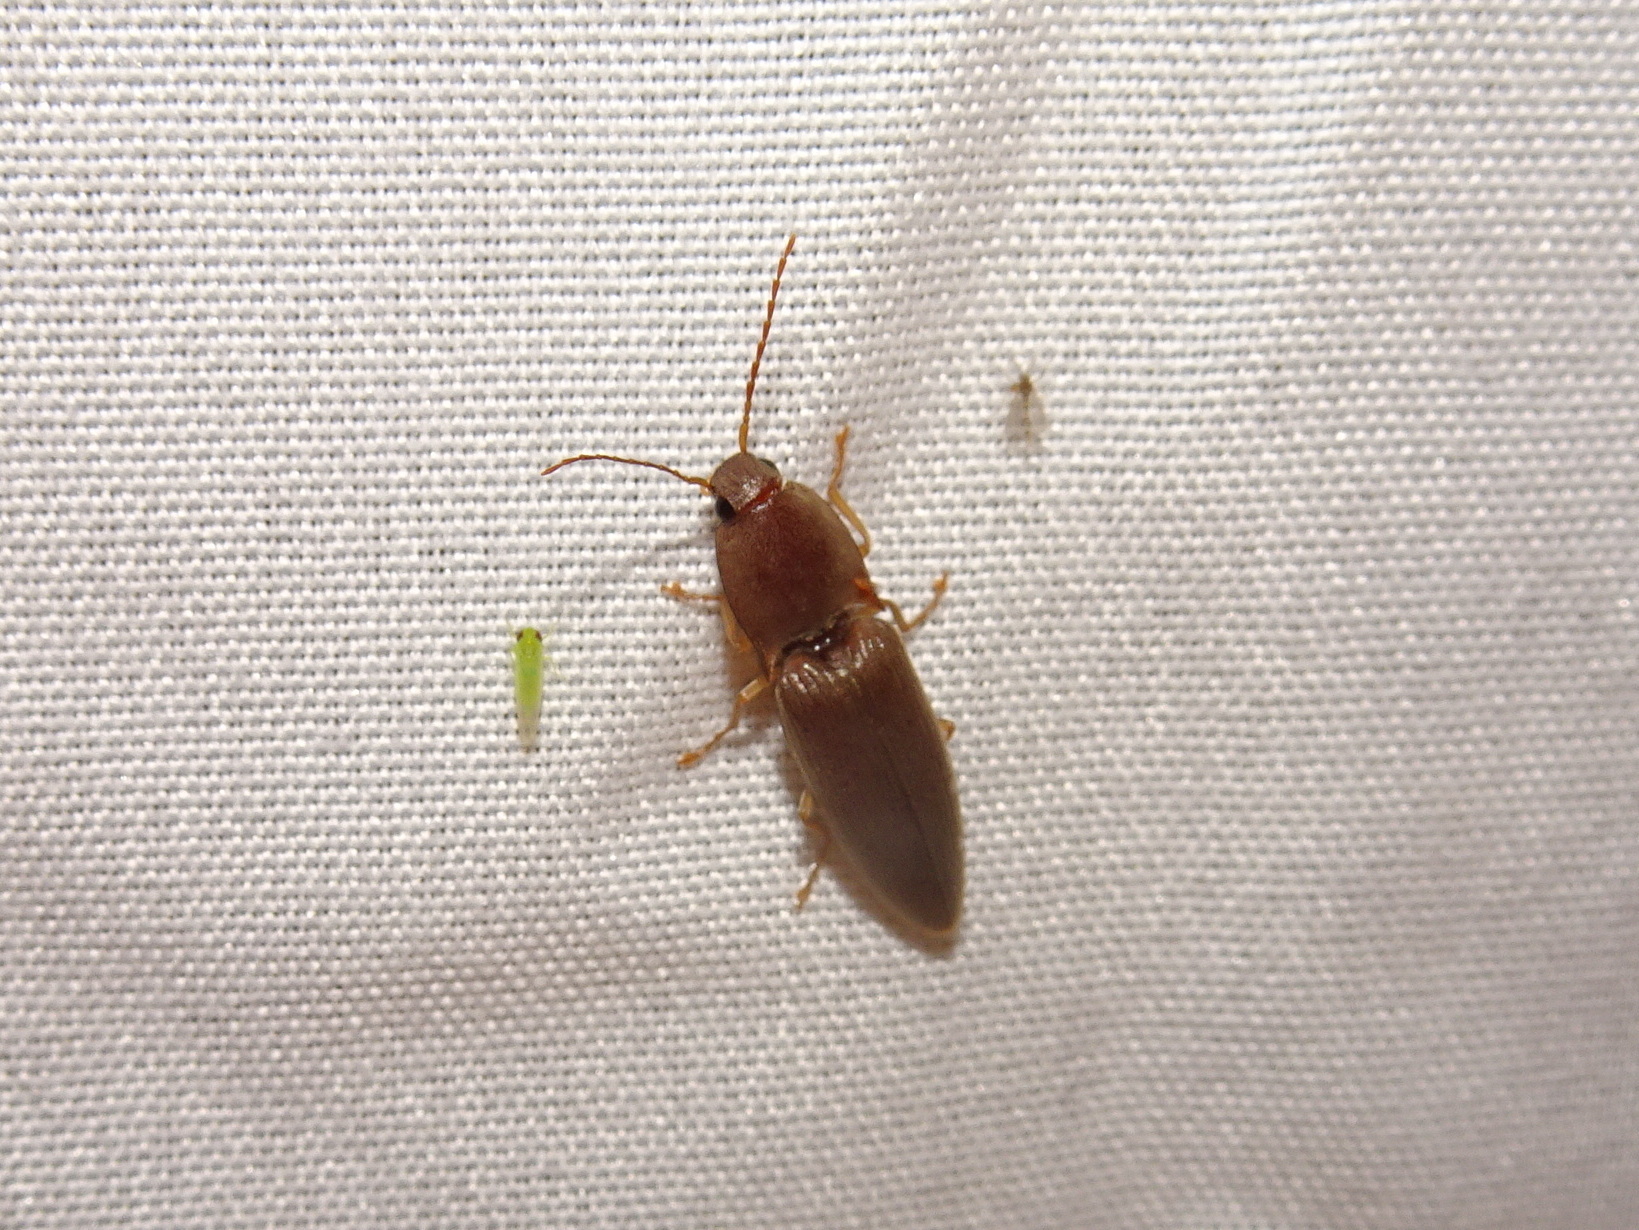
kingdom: Animalia
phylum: Arthropoda
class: Insecta
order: Coleoptera
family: Elateridae
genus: Monocrepidius
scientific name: Monocrepidius lividus
